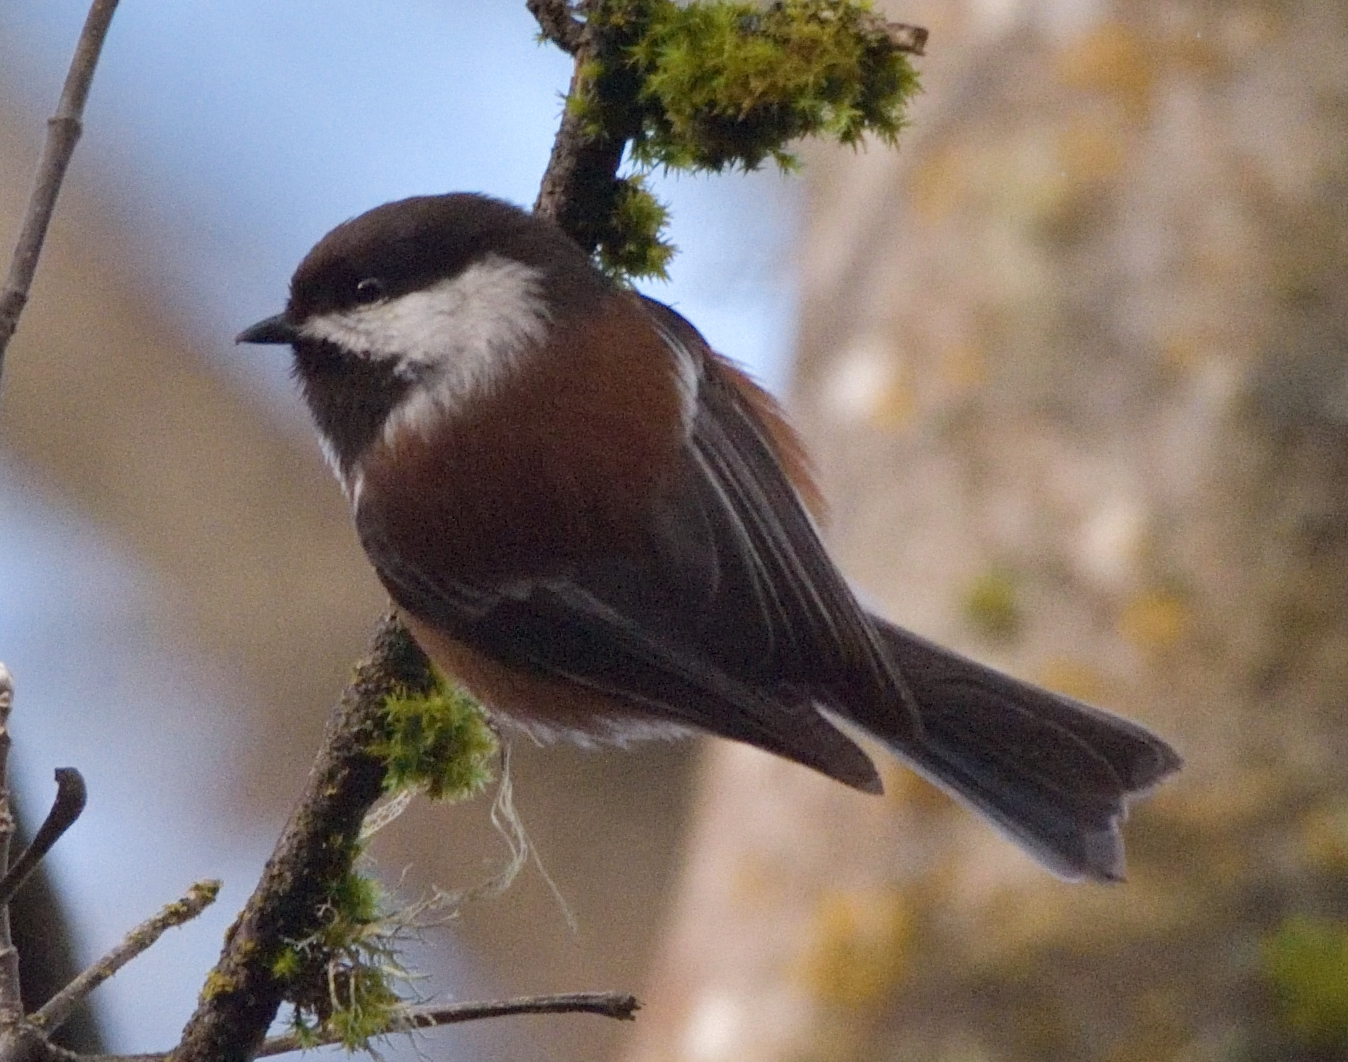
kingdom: Animalia
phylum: Chordata
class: Aves
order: Passeriformes
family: Paridae
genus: Poecile
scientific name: Poecile rufescens
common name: Chestnut-backed chickadee
